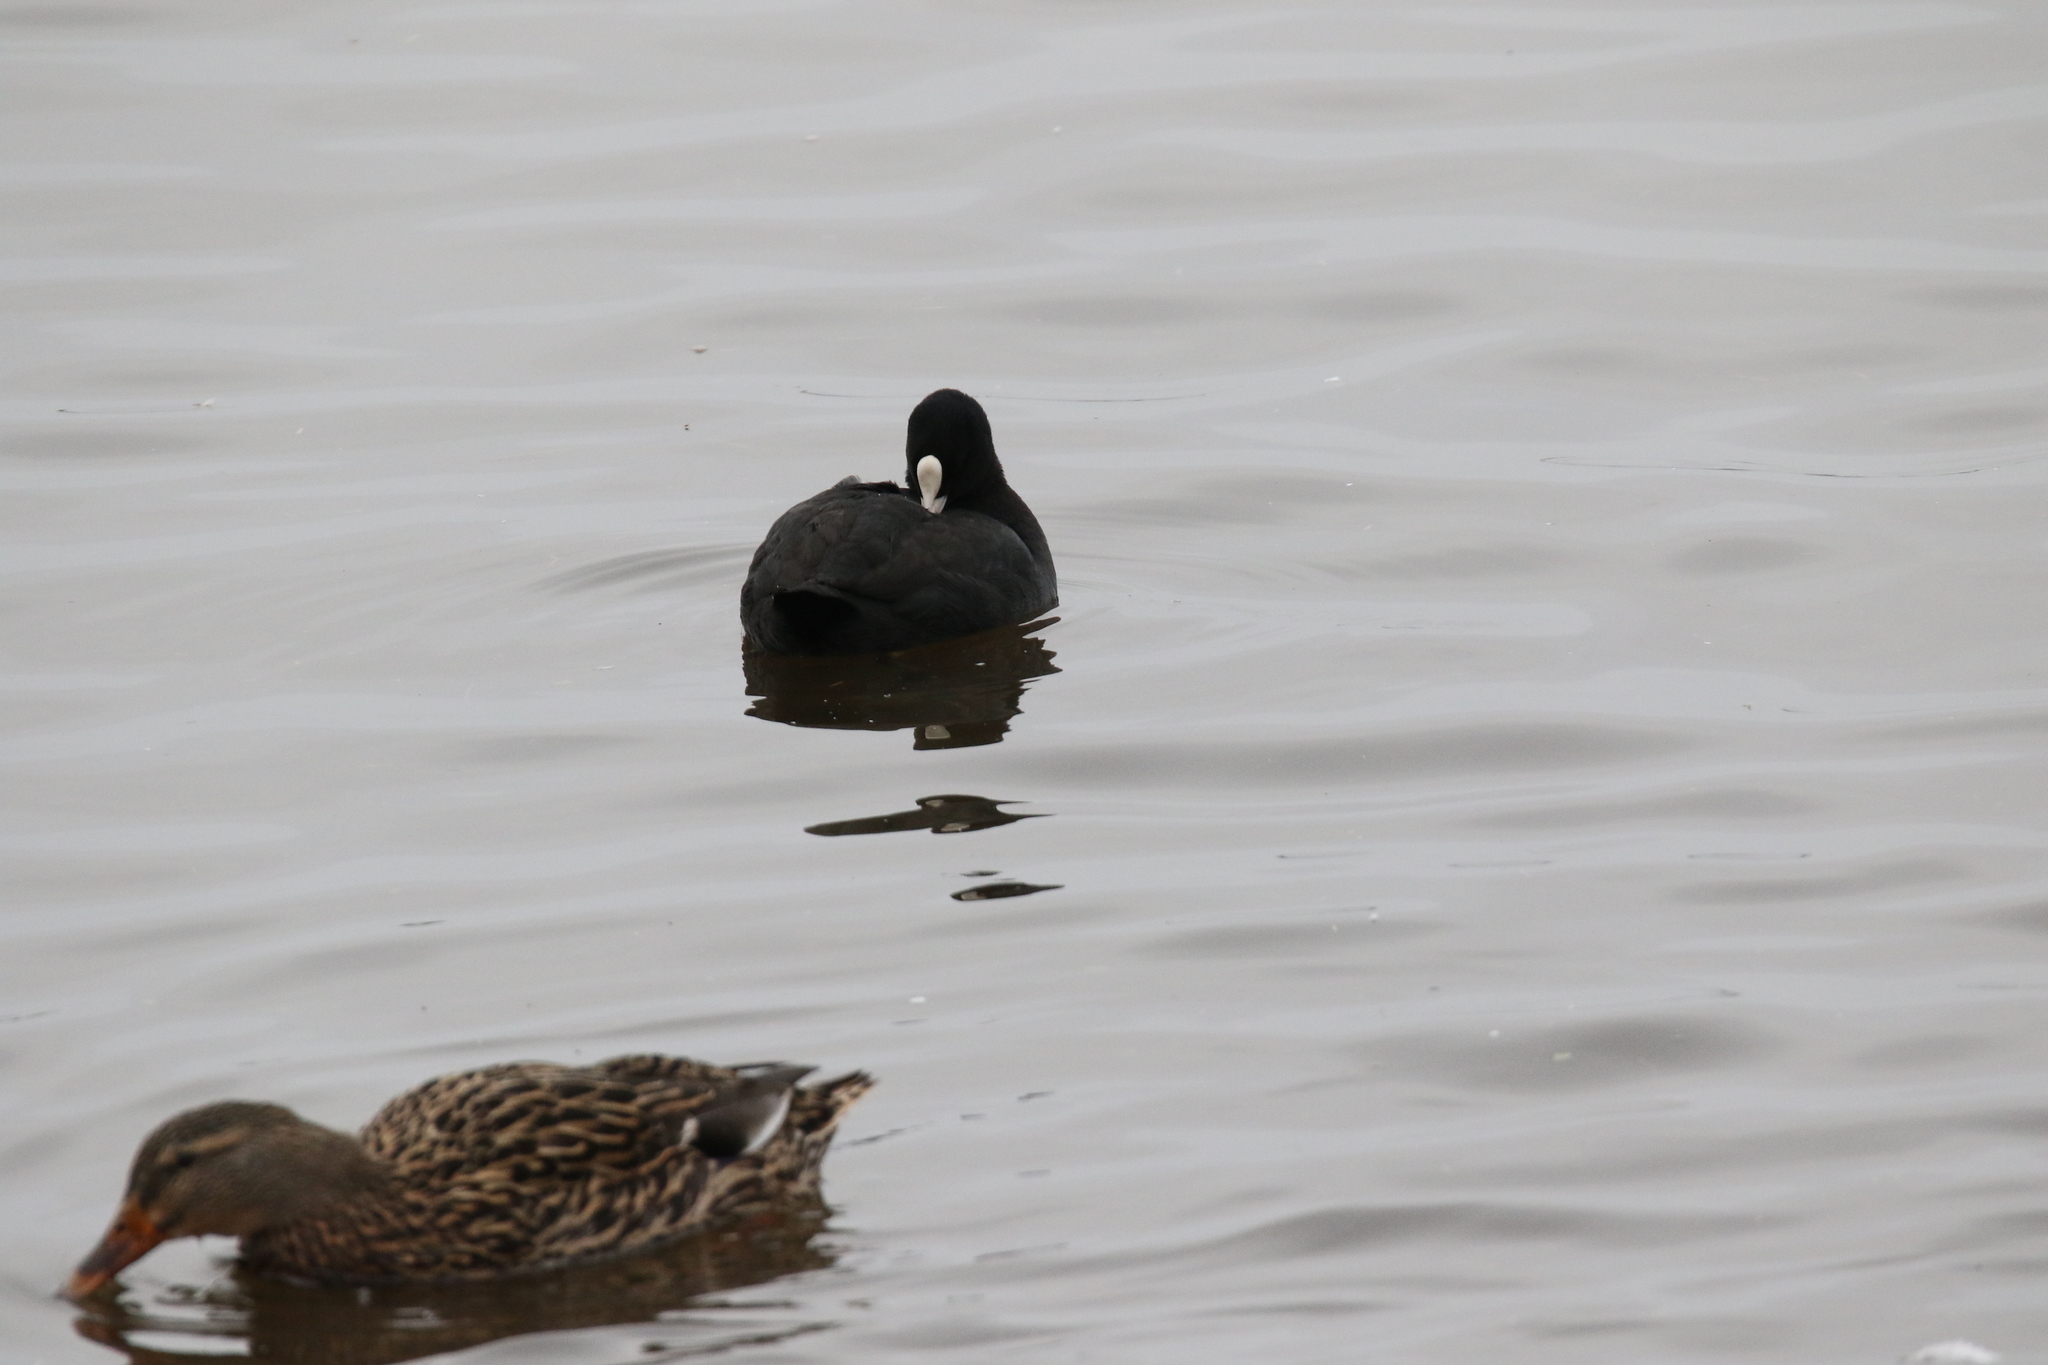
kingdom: Animalia
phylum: Chordata
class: Aves
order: Gruiformes
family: Rallidae
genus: Fulica
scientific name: Fulica atra
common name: Eurasian coot
